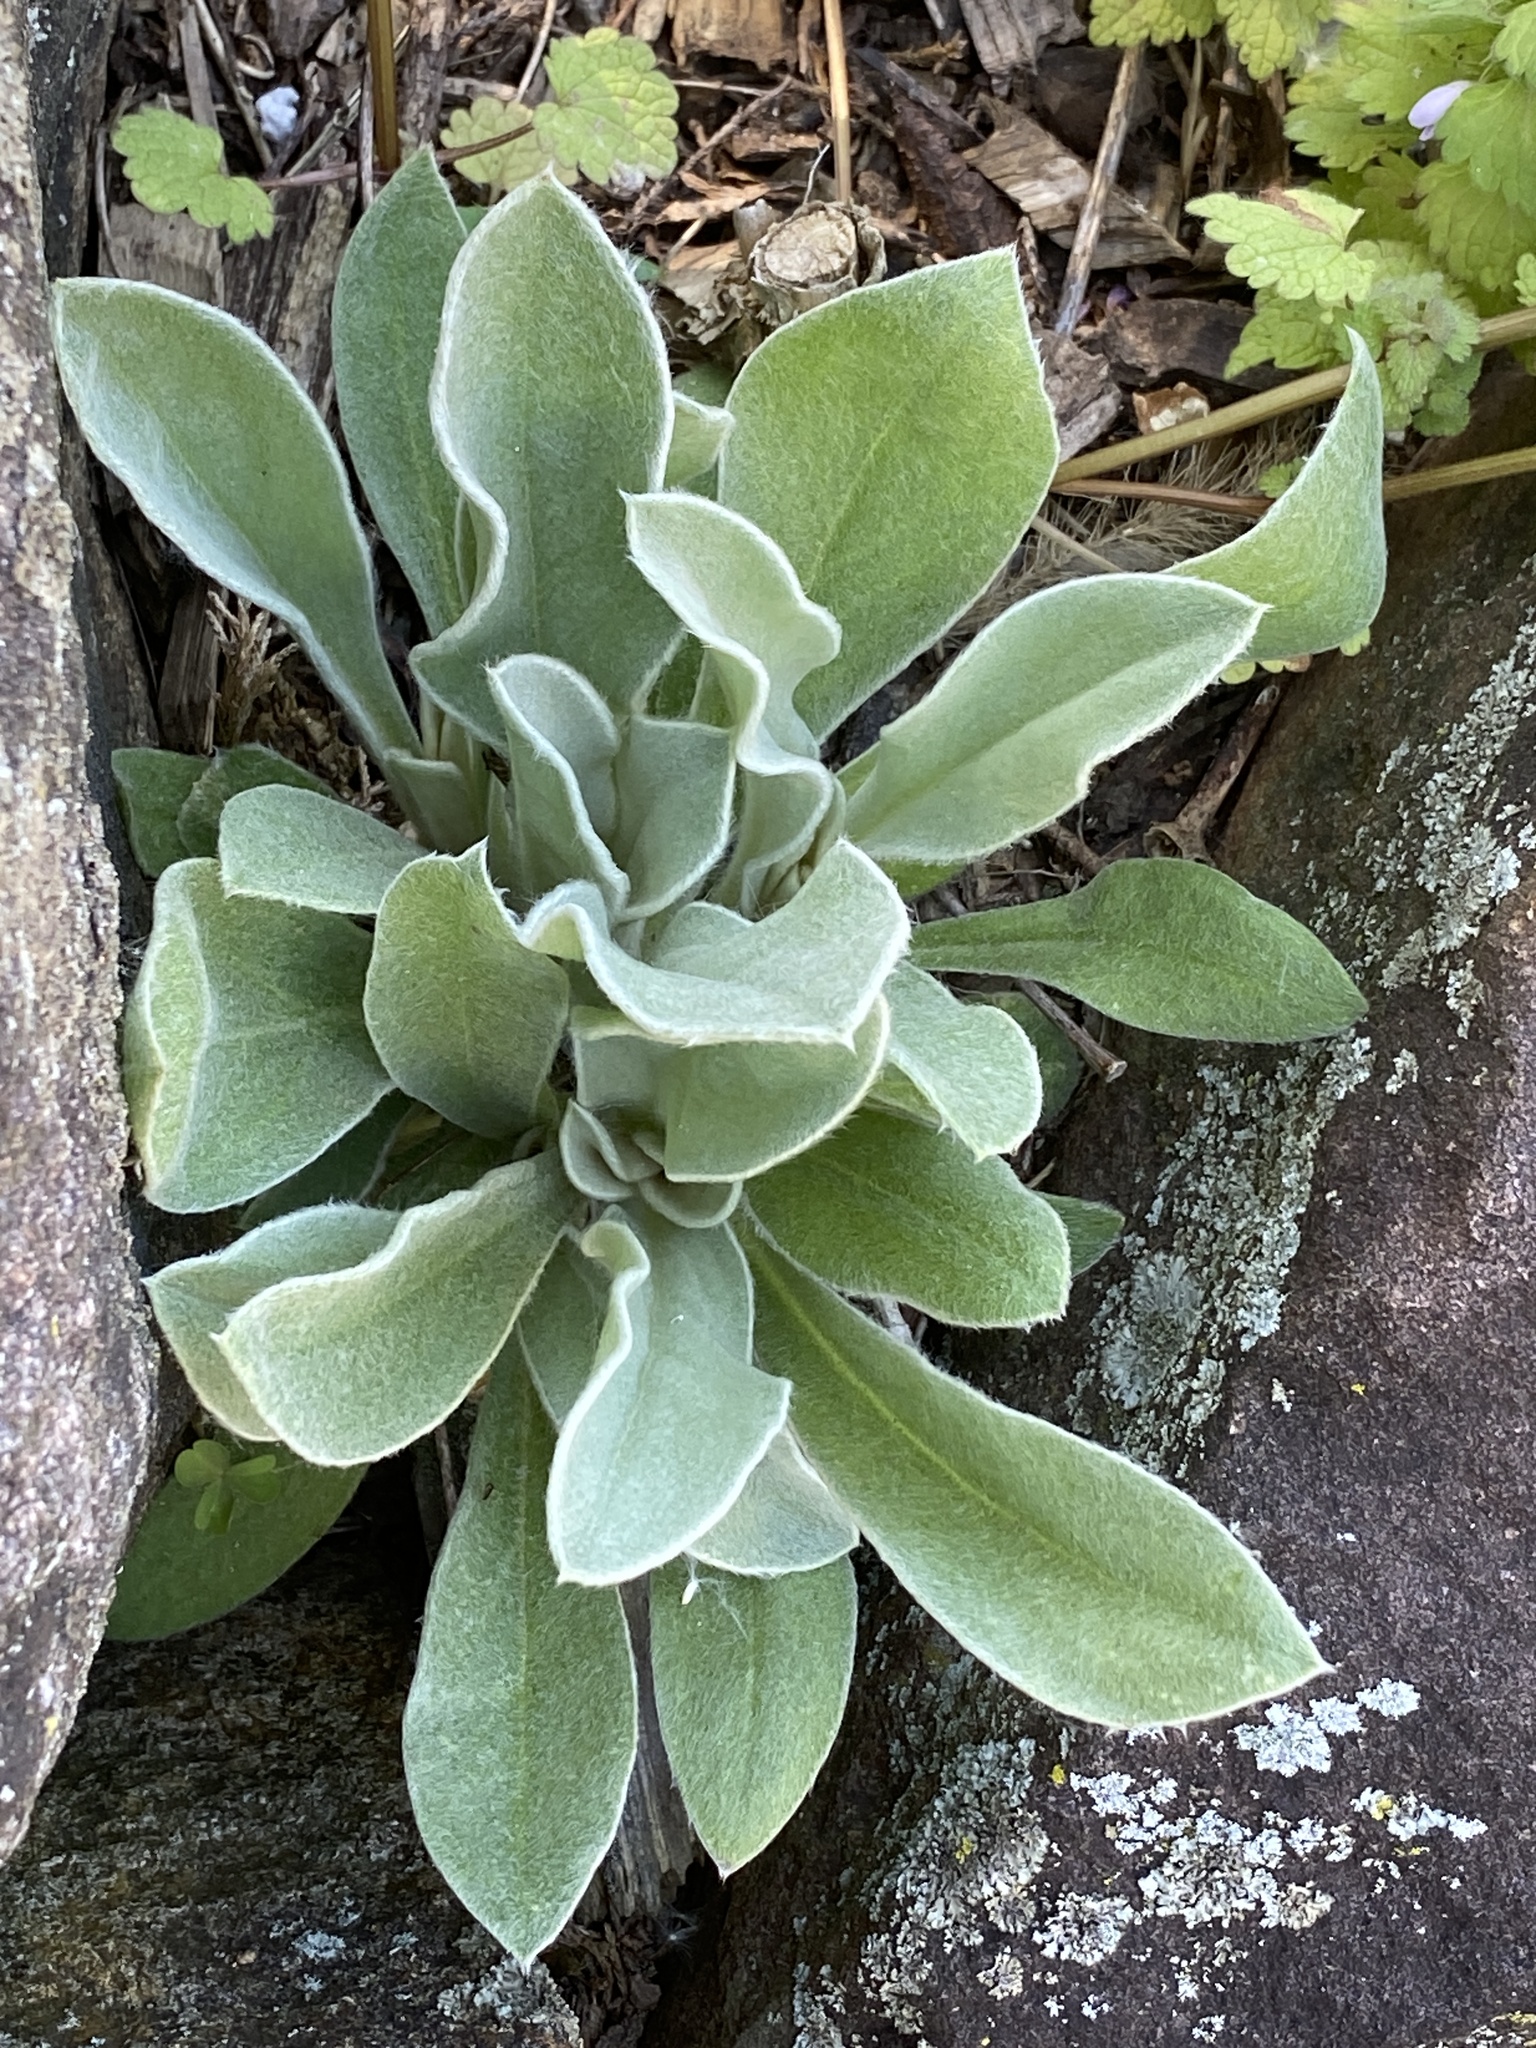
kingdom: Plantae
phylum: Tracheophyta
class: Magnoliopsida
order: Caryophyllales
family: Caryophyllaceae
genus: Silene
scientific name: Silene coronaria
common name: Rose campion
